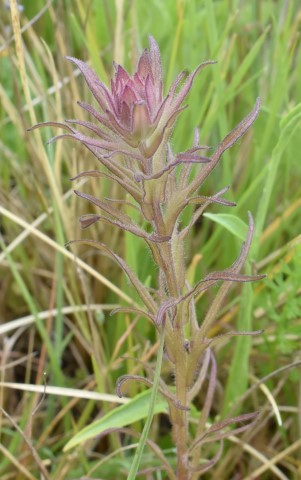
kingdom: Plantae
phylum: Tracheophyta
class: Magnoliopsida
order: Lamiales
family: Orobanchaceae
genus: Orthocarpus
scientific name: Orthocarpus bracteosus
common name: Rosy owl's-clover
